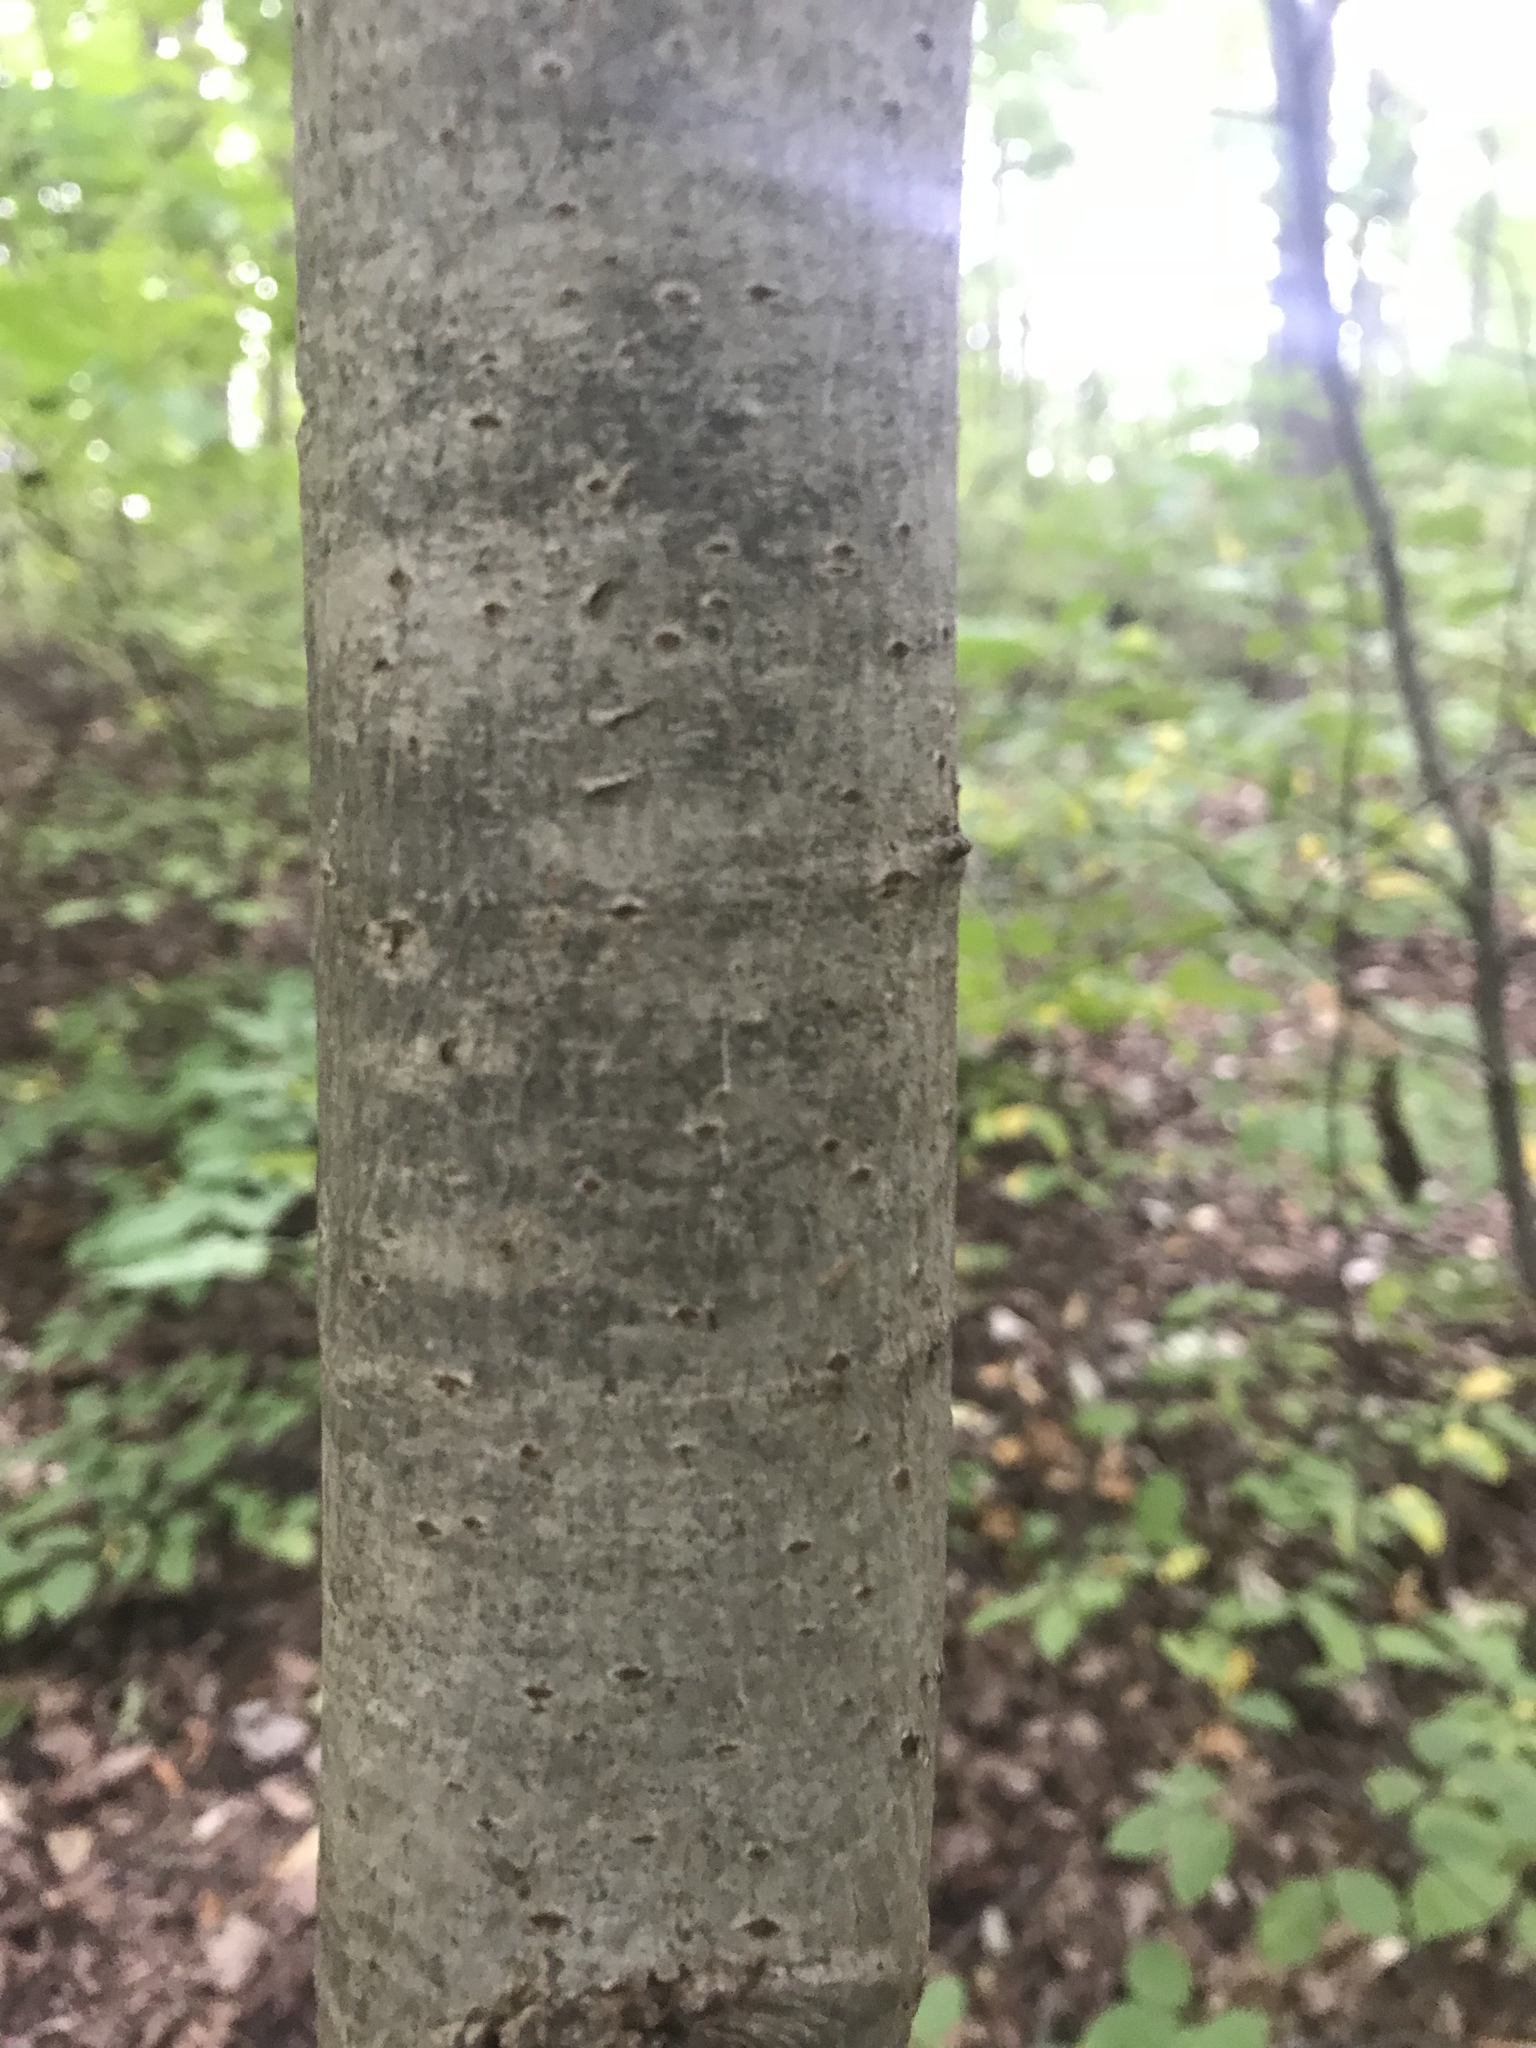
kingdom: Plantae
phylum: Tracheophyta
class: Magnoliopsida
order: Malvales
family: Malvaceae
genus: Tilia
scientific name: Tilia americana
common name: Basswood
